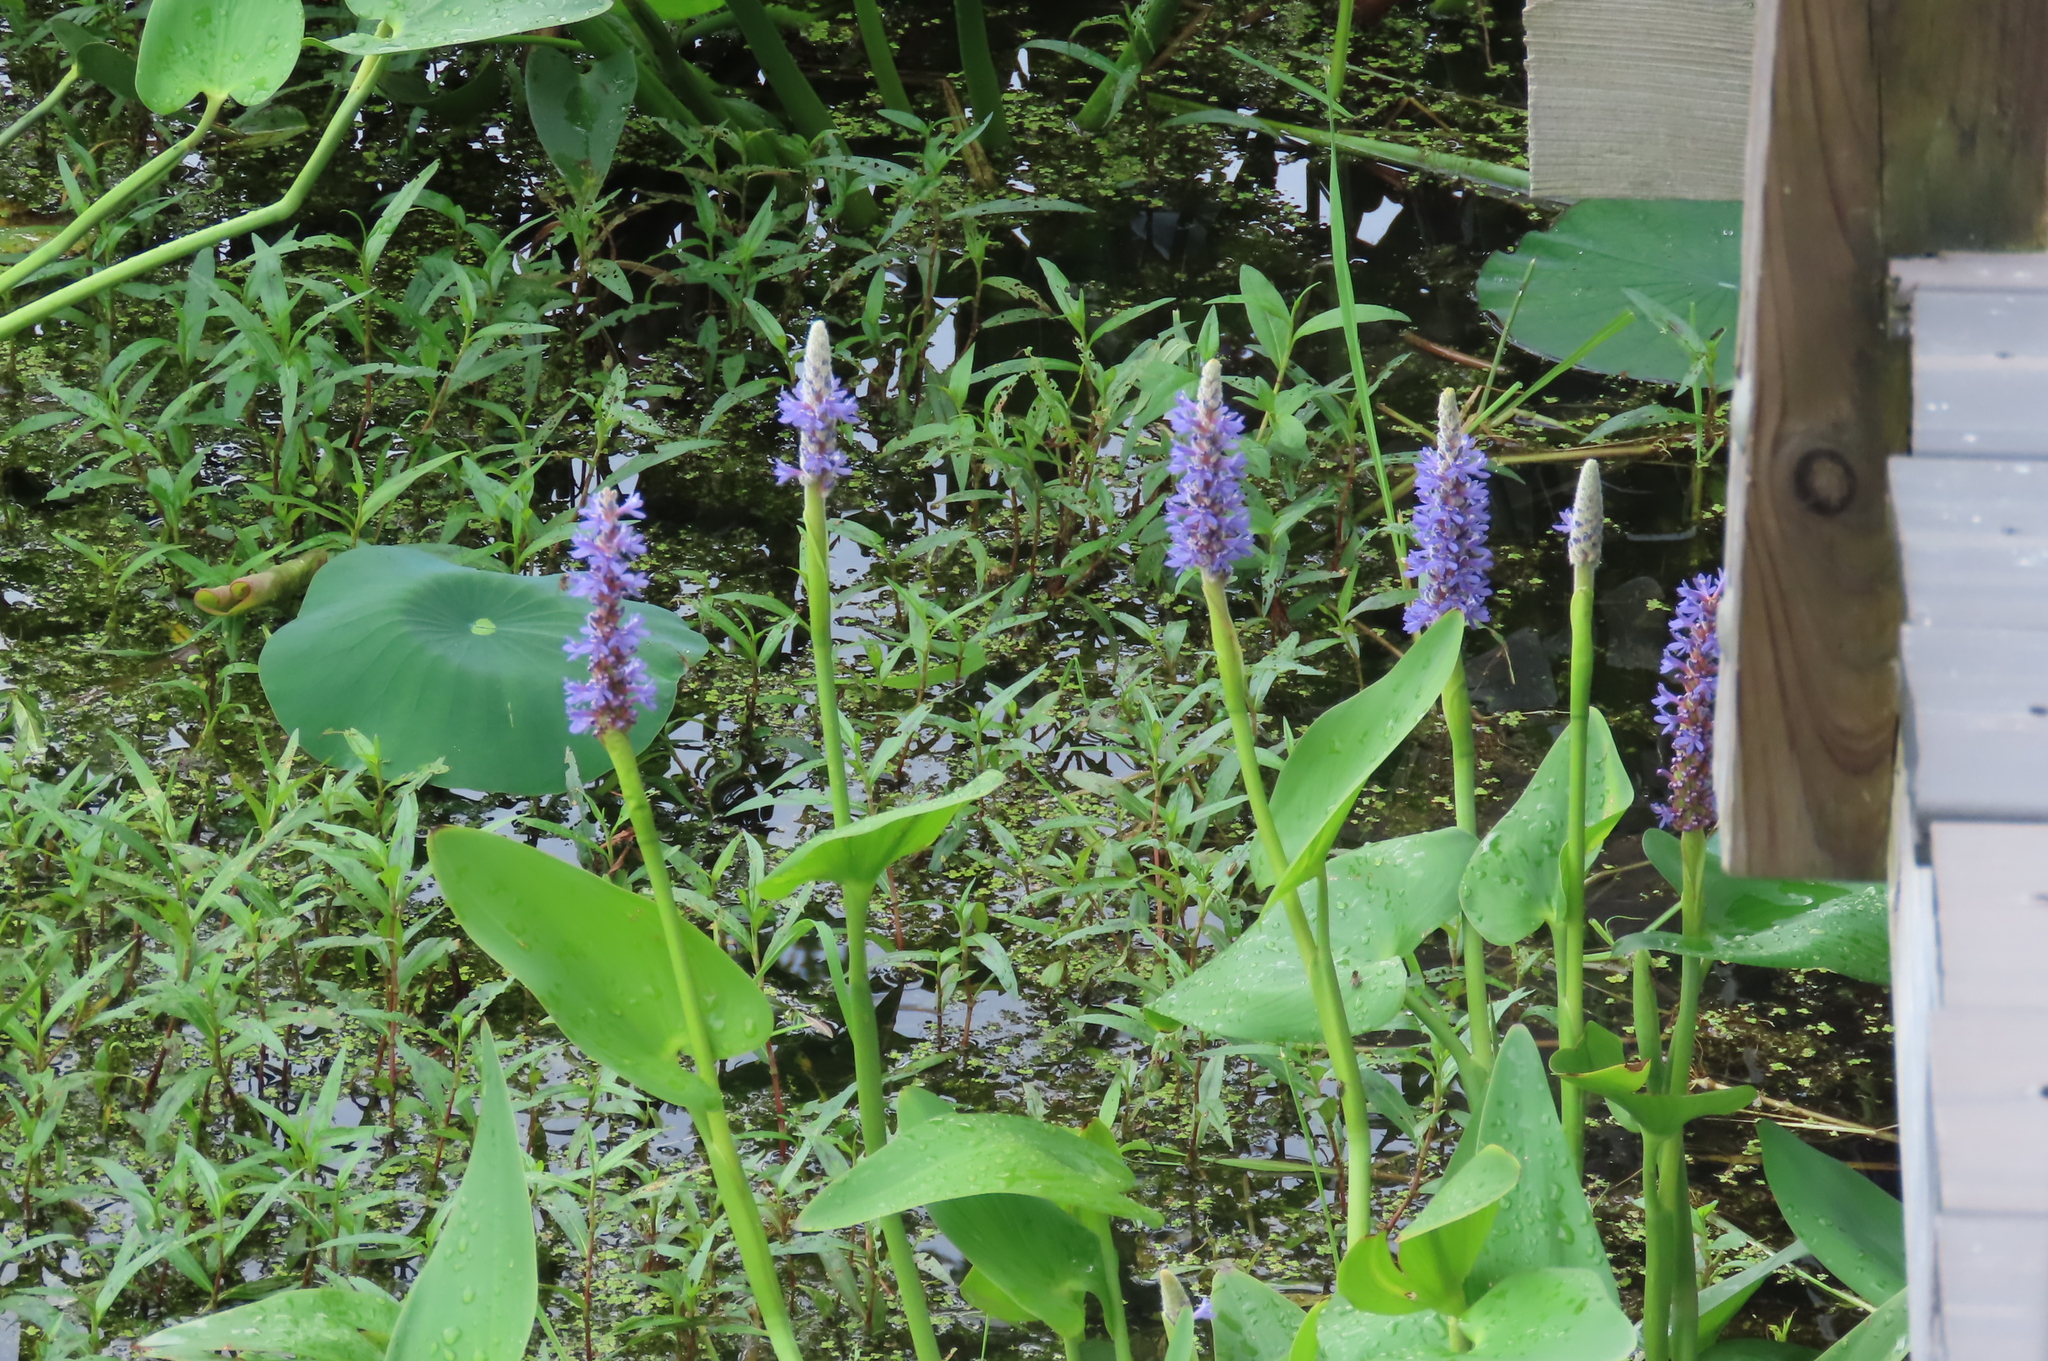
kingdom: Plantae
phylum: Tracheophyta
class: Liliopsida
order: Commelinales
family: Pontederiaceae
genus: Pontederia
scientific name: Pontederia cordata
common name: Pickerelweed
